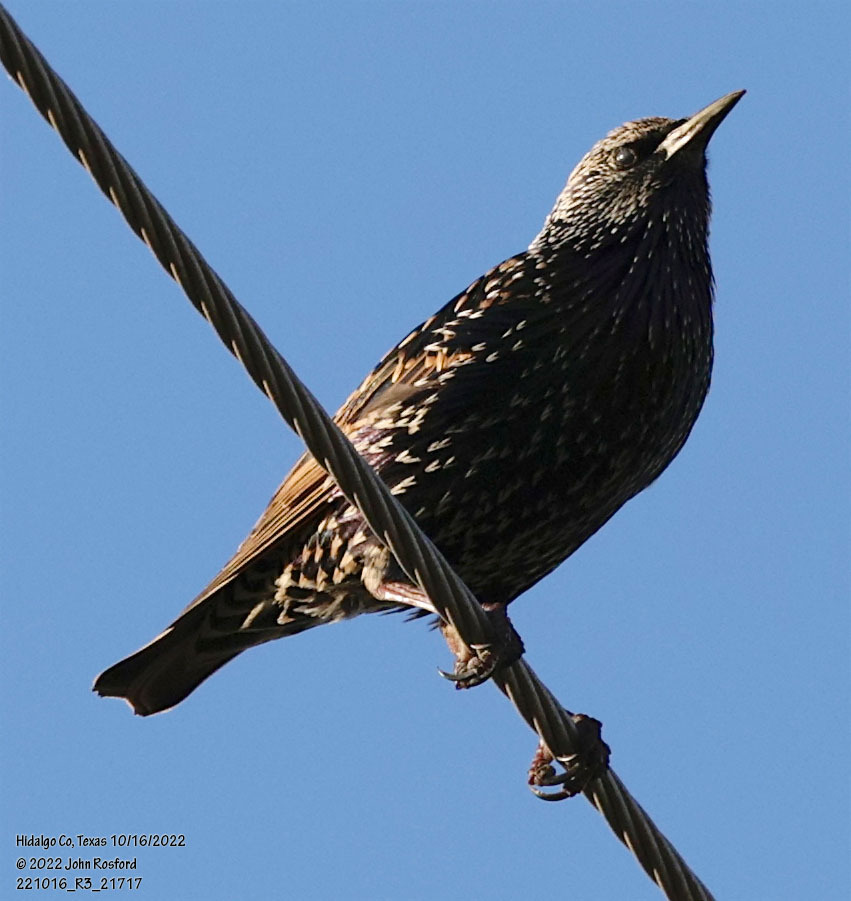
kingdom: Animalia
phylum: Chordata
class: Aves
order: Passeriformes
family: Sturnidae
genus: Sturnus
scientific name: Sturnus vulgaris
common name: Common starling
